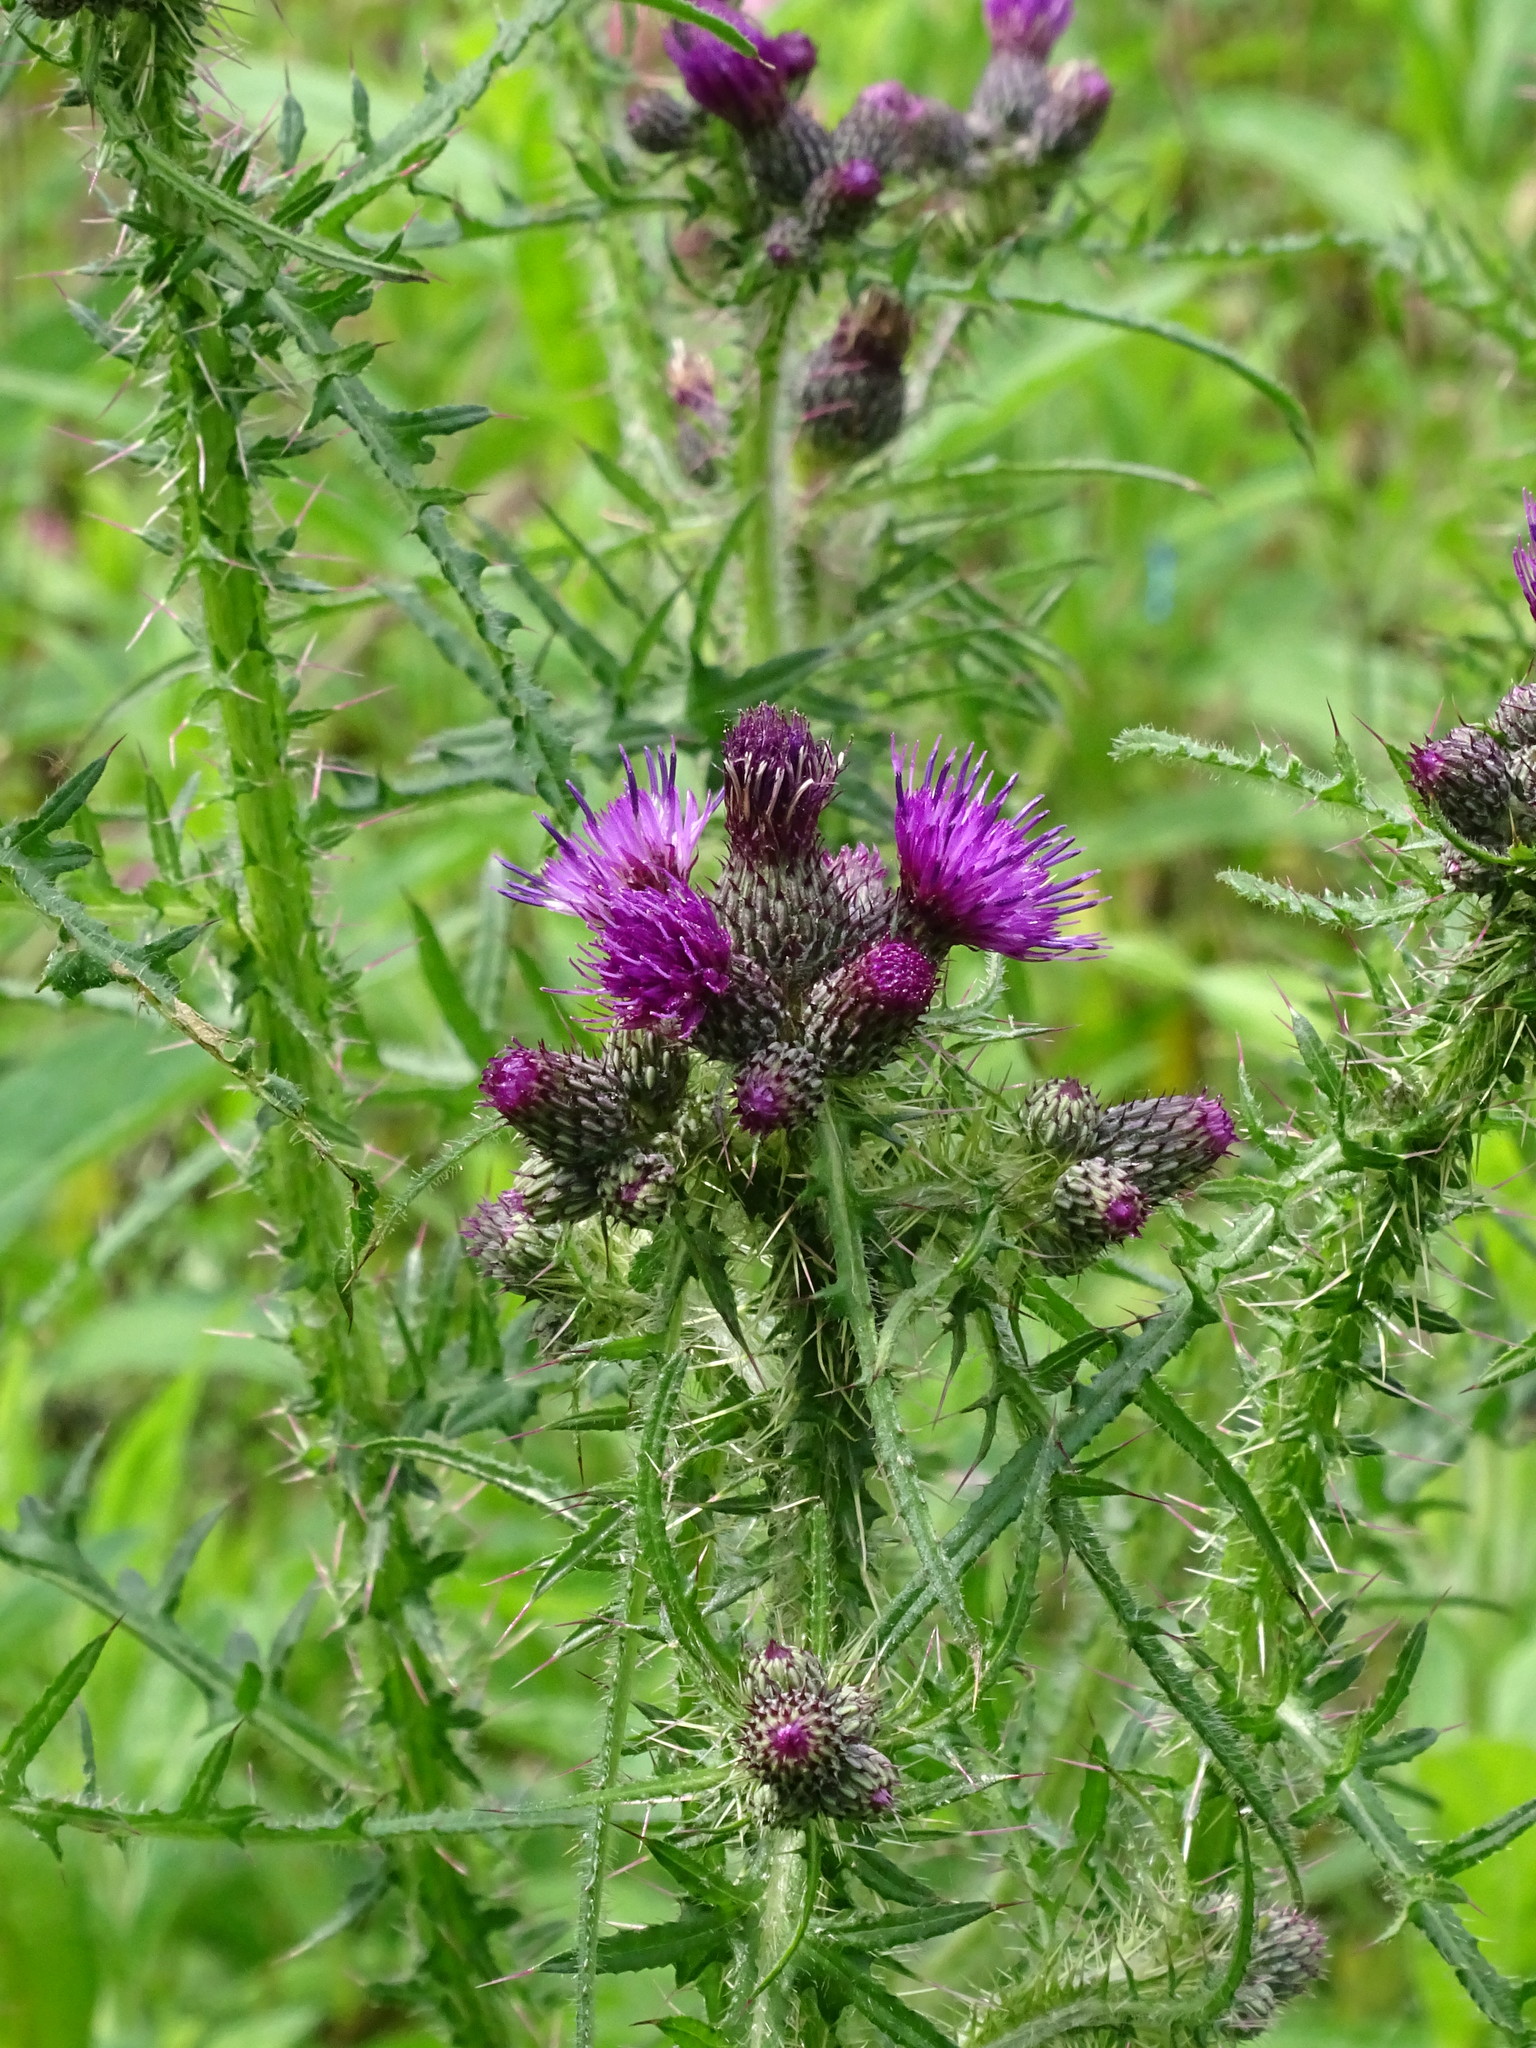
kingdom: Plantae
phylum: Tracheophyta
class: Magnoliopsida
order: Asterales
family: Asteraceae
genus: Cirsium
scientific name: Cirsium palustre
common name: Marsh thistle
